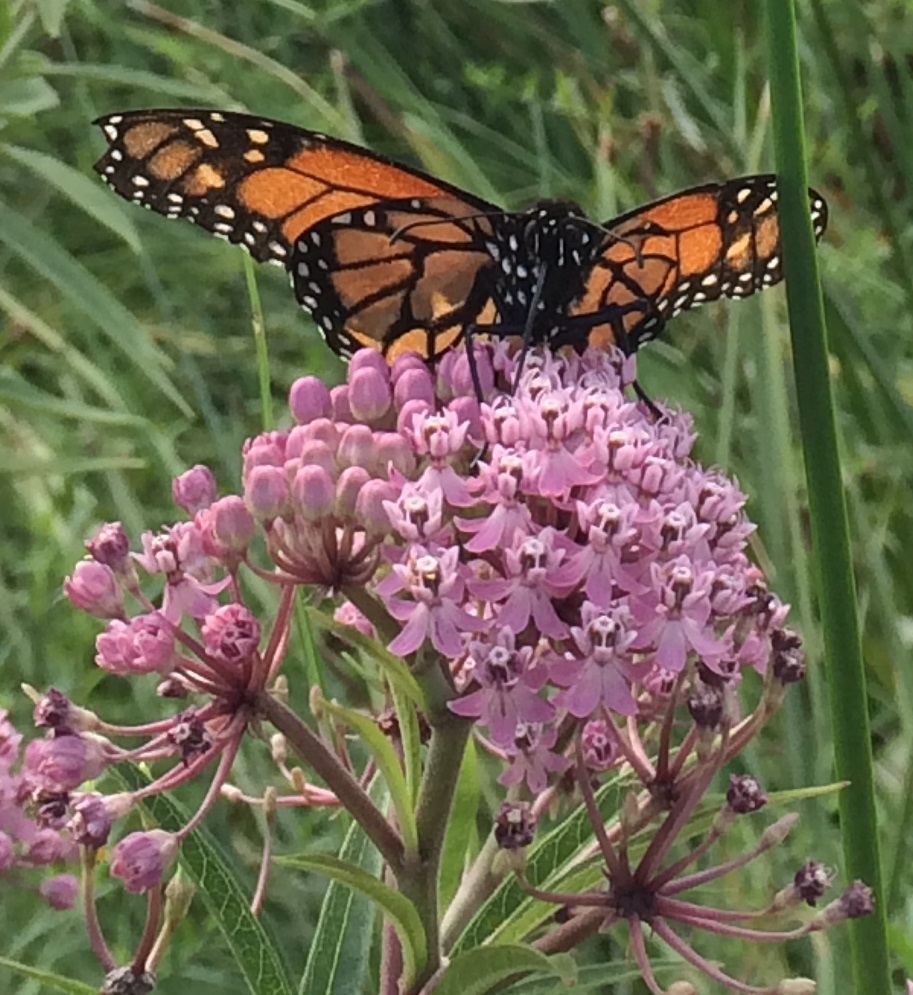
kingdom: Animalia
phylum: Arthropoda
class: Insecta
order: Lepidoptera
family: Nymphalidae
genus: Danaus
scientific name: Danaus plexippus
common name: Monarch
